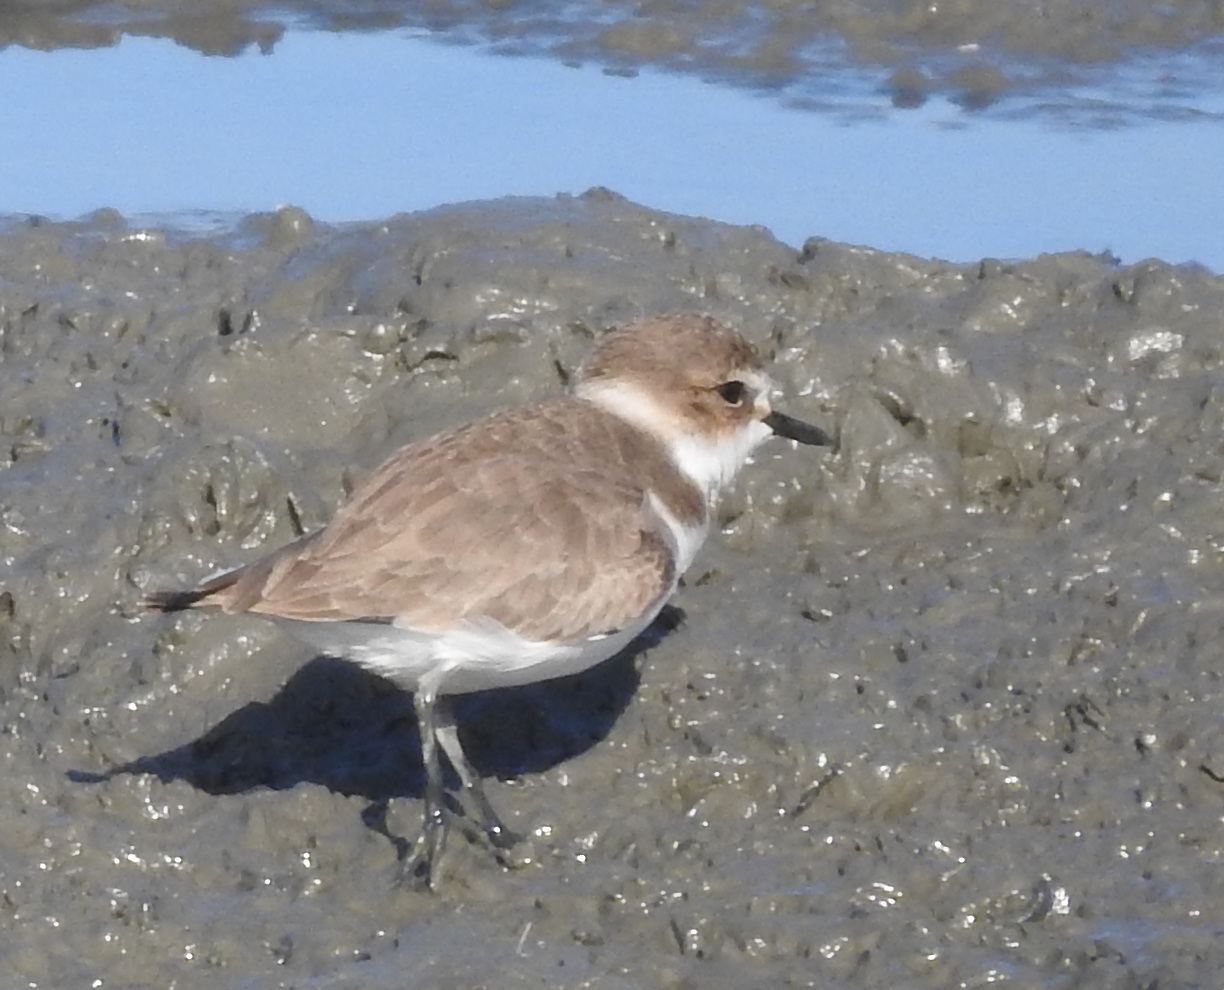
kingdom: Animalia
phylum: Chordata
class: Aves
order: Charadriiformes
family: Charadriidae
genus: Charadrius
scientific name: Charadrius alexandrinus
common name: Kentish plover
